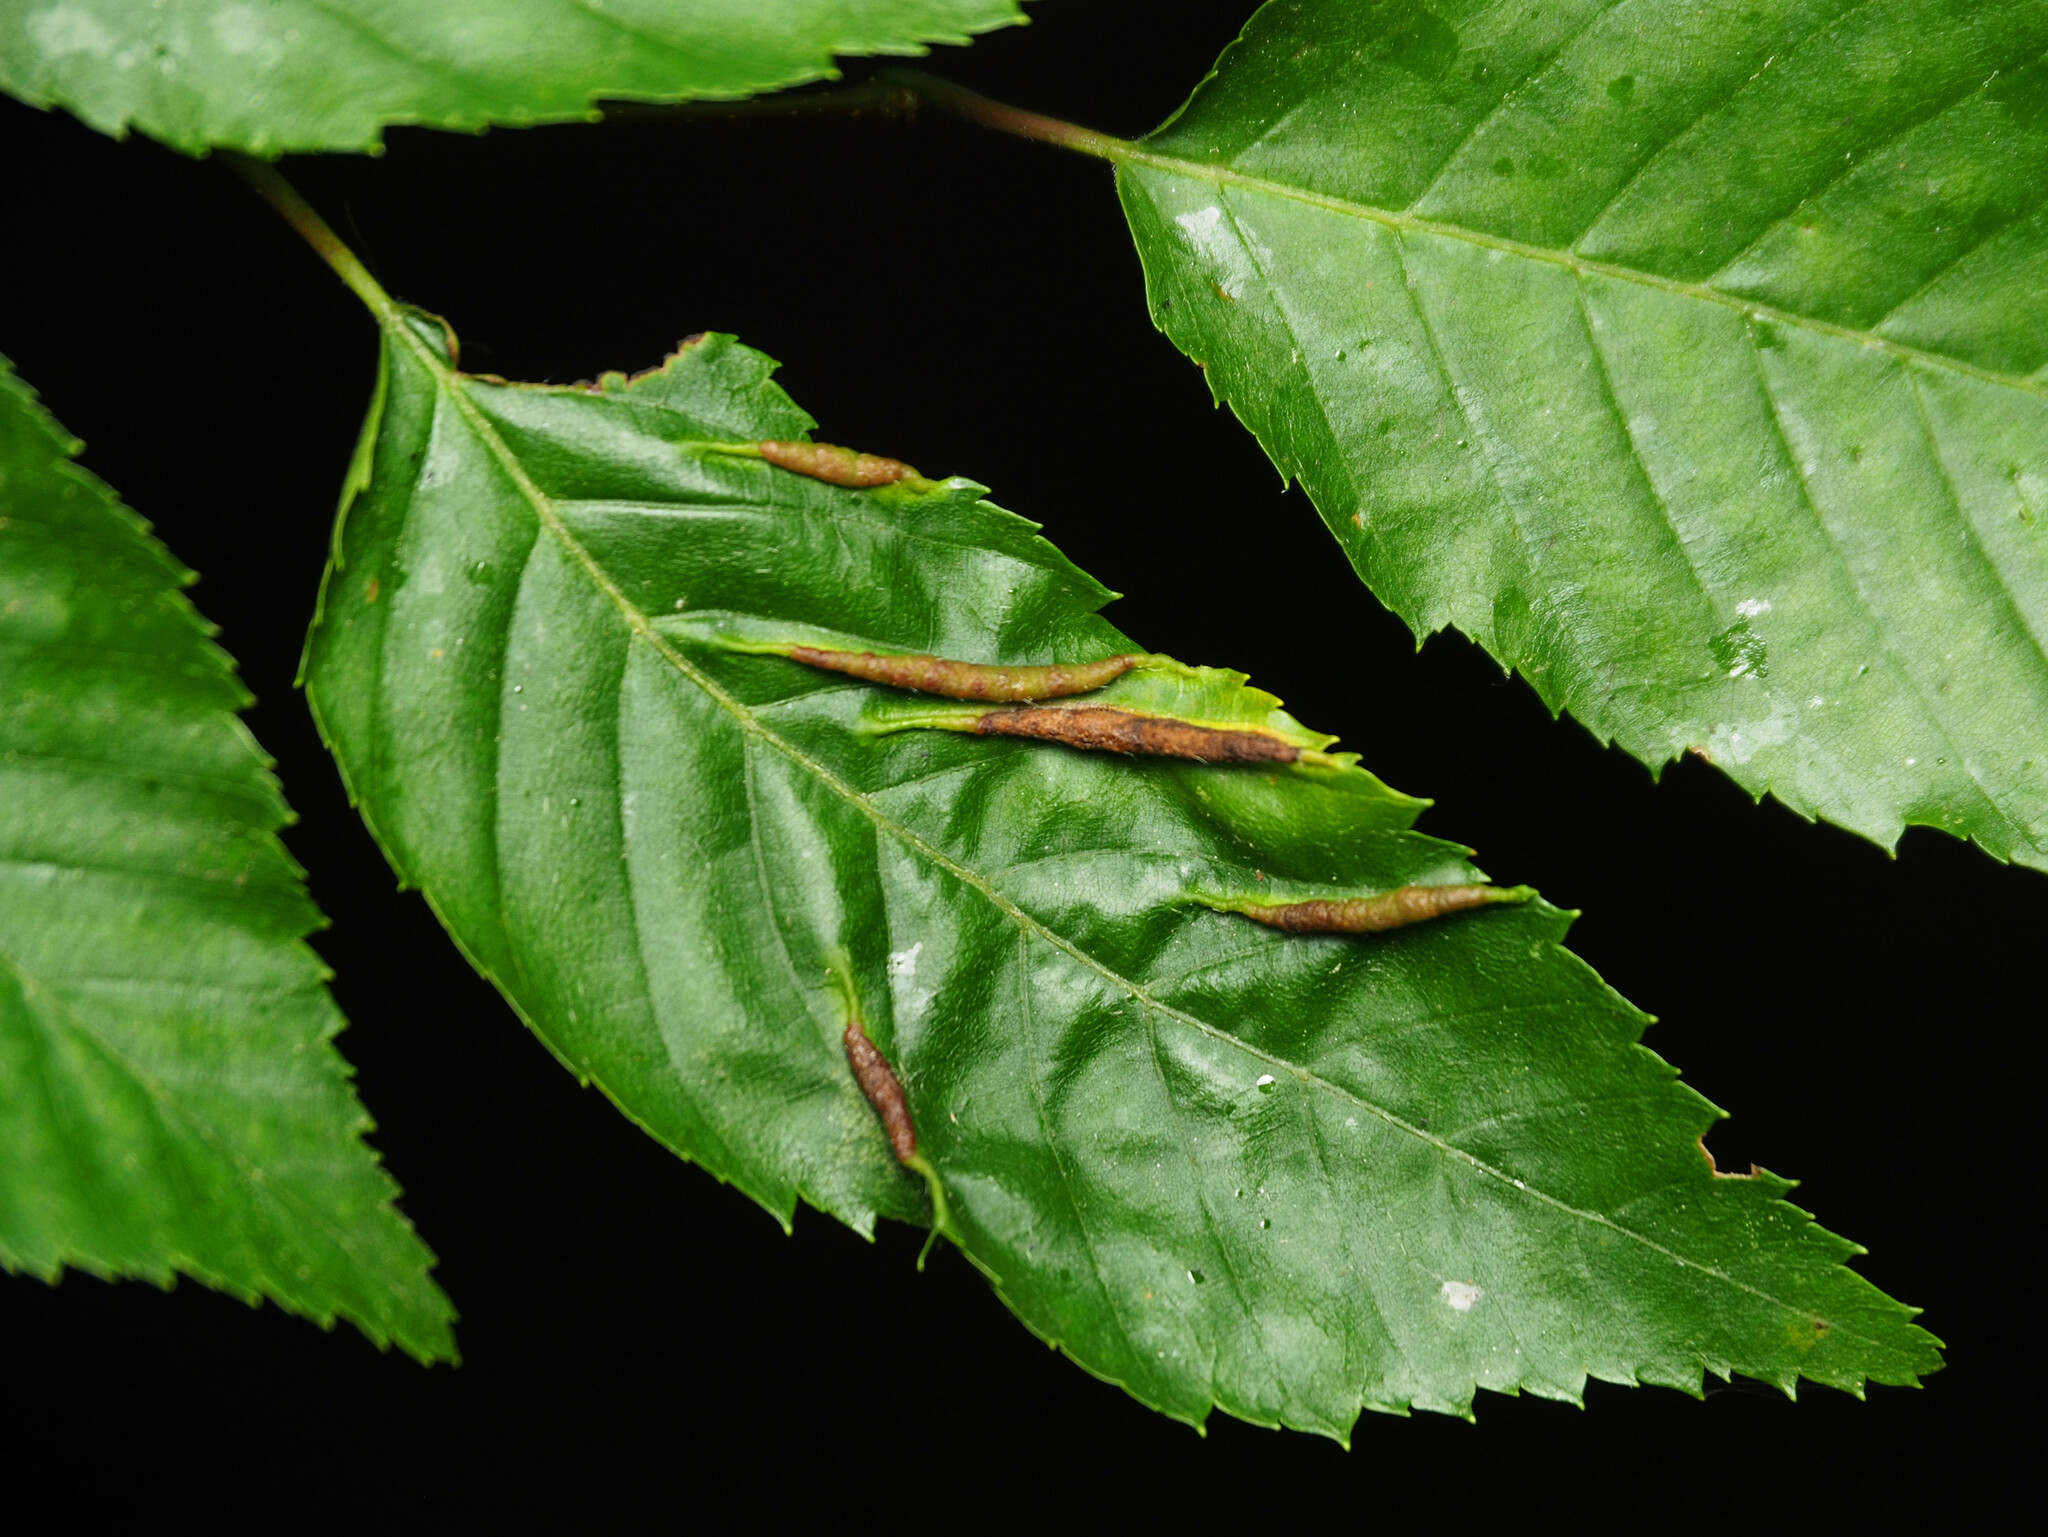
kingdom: Animalia
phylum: Arthropoda
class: Insecta
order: Diptera
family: Cecidomyiidae
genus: Dasineura
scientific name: Dasineura pudibunda
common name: Hornbeam leaf gall midge
